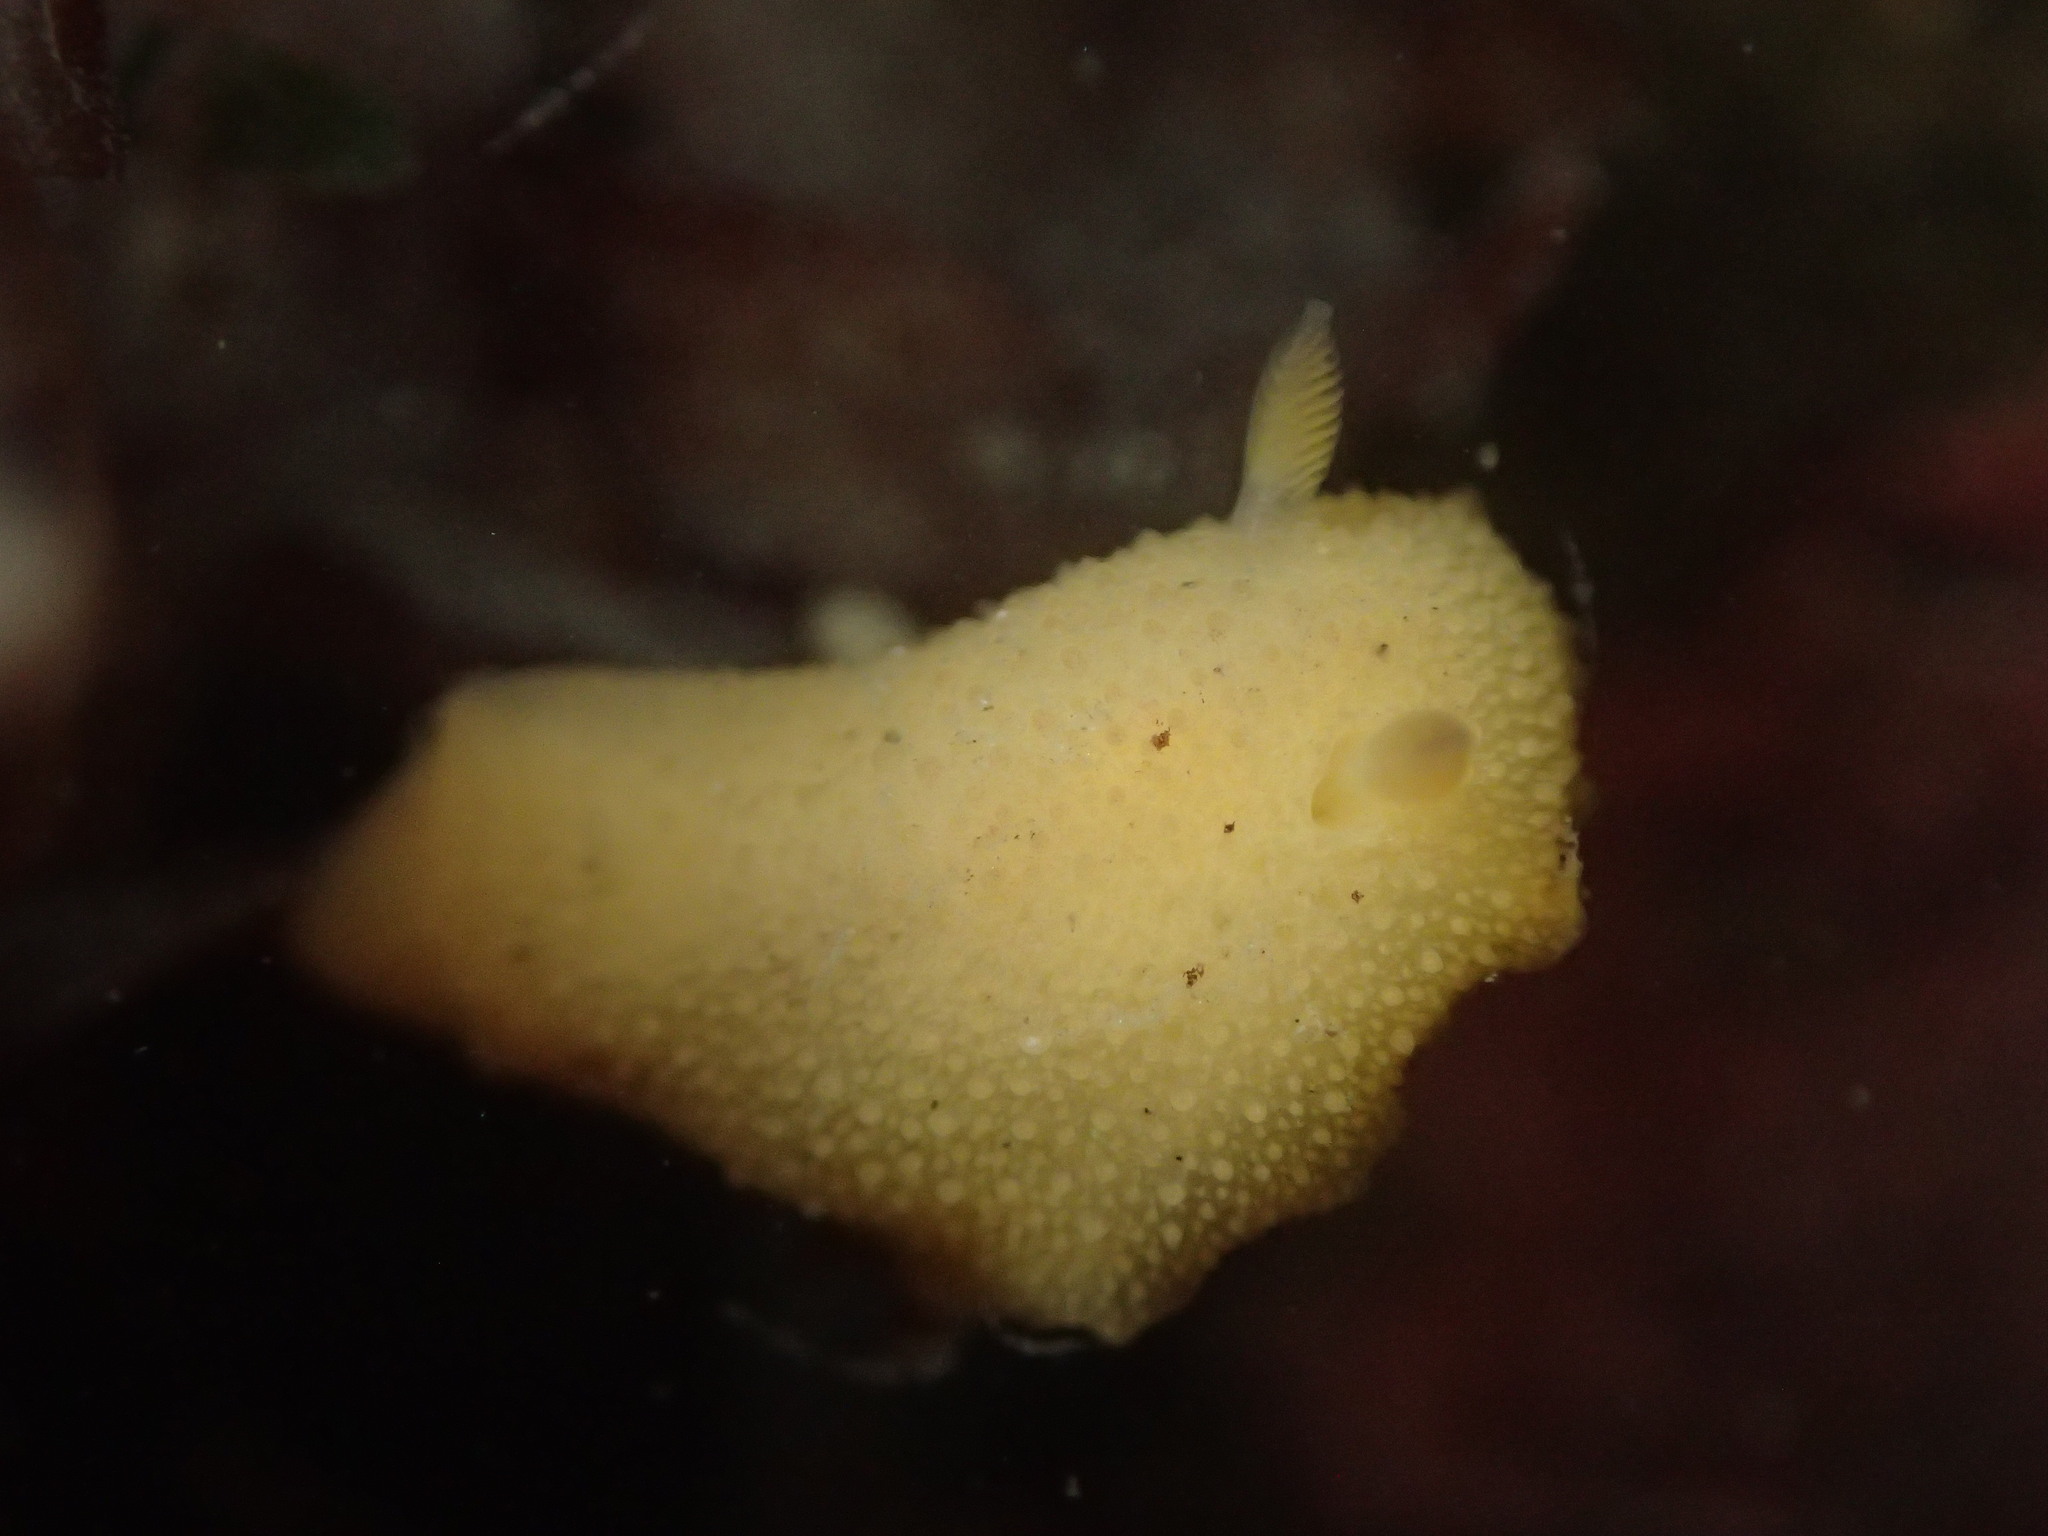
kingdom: Animalia
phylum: Mollusca
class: Gastropoda
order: Nudibranchia
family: Dorididae
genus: Doris
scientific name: Doris montereyensis
